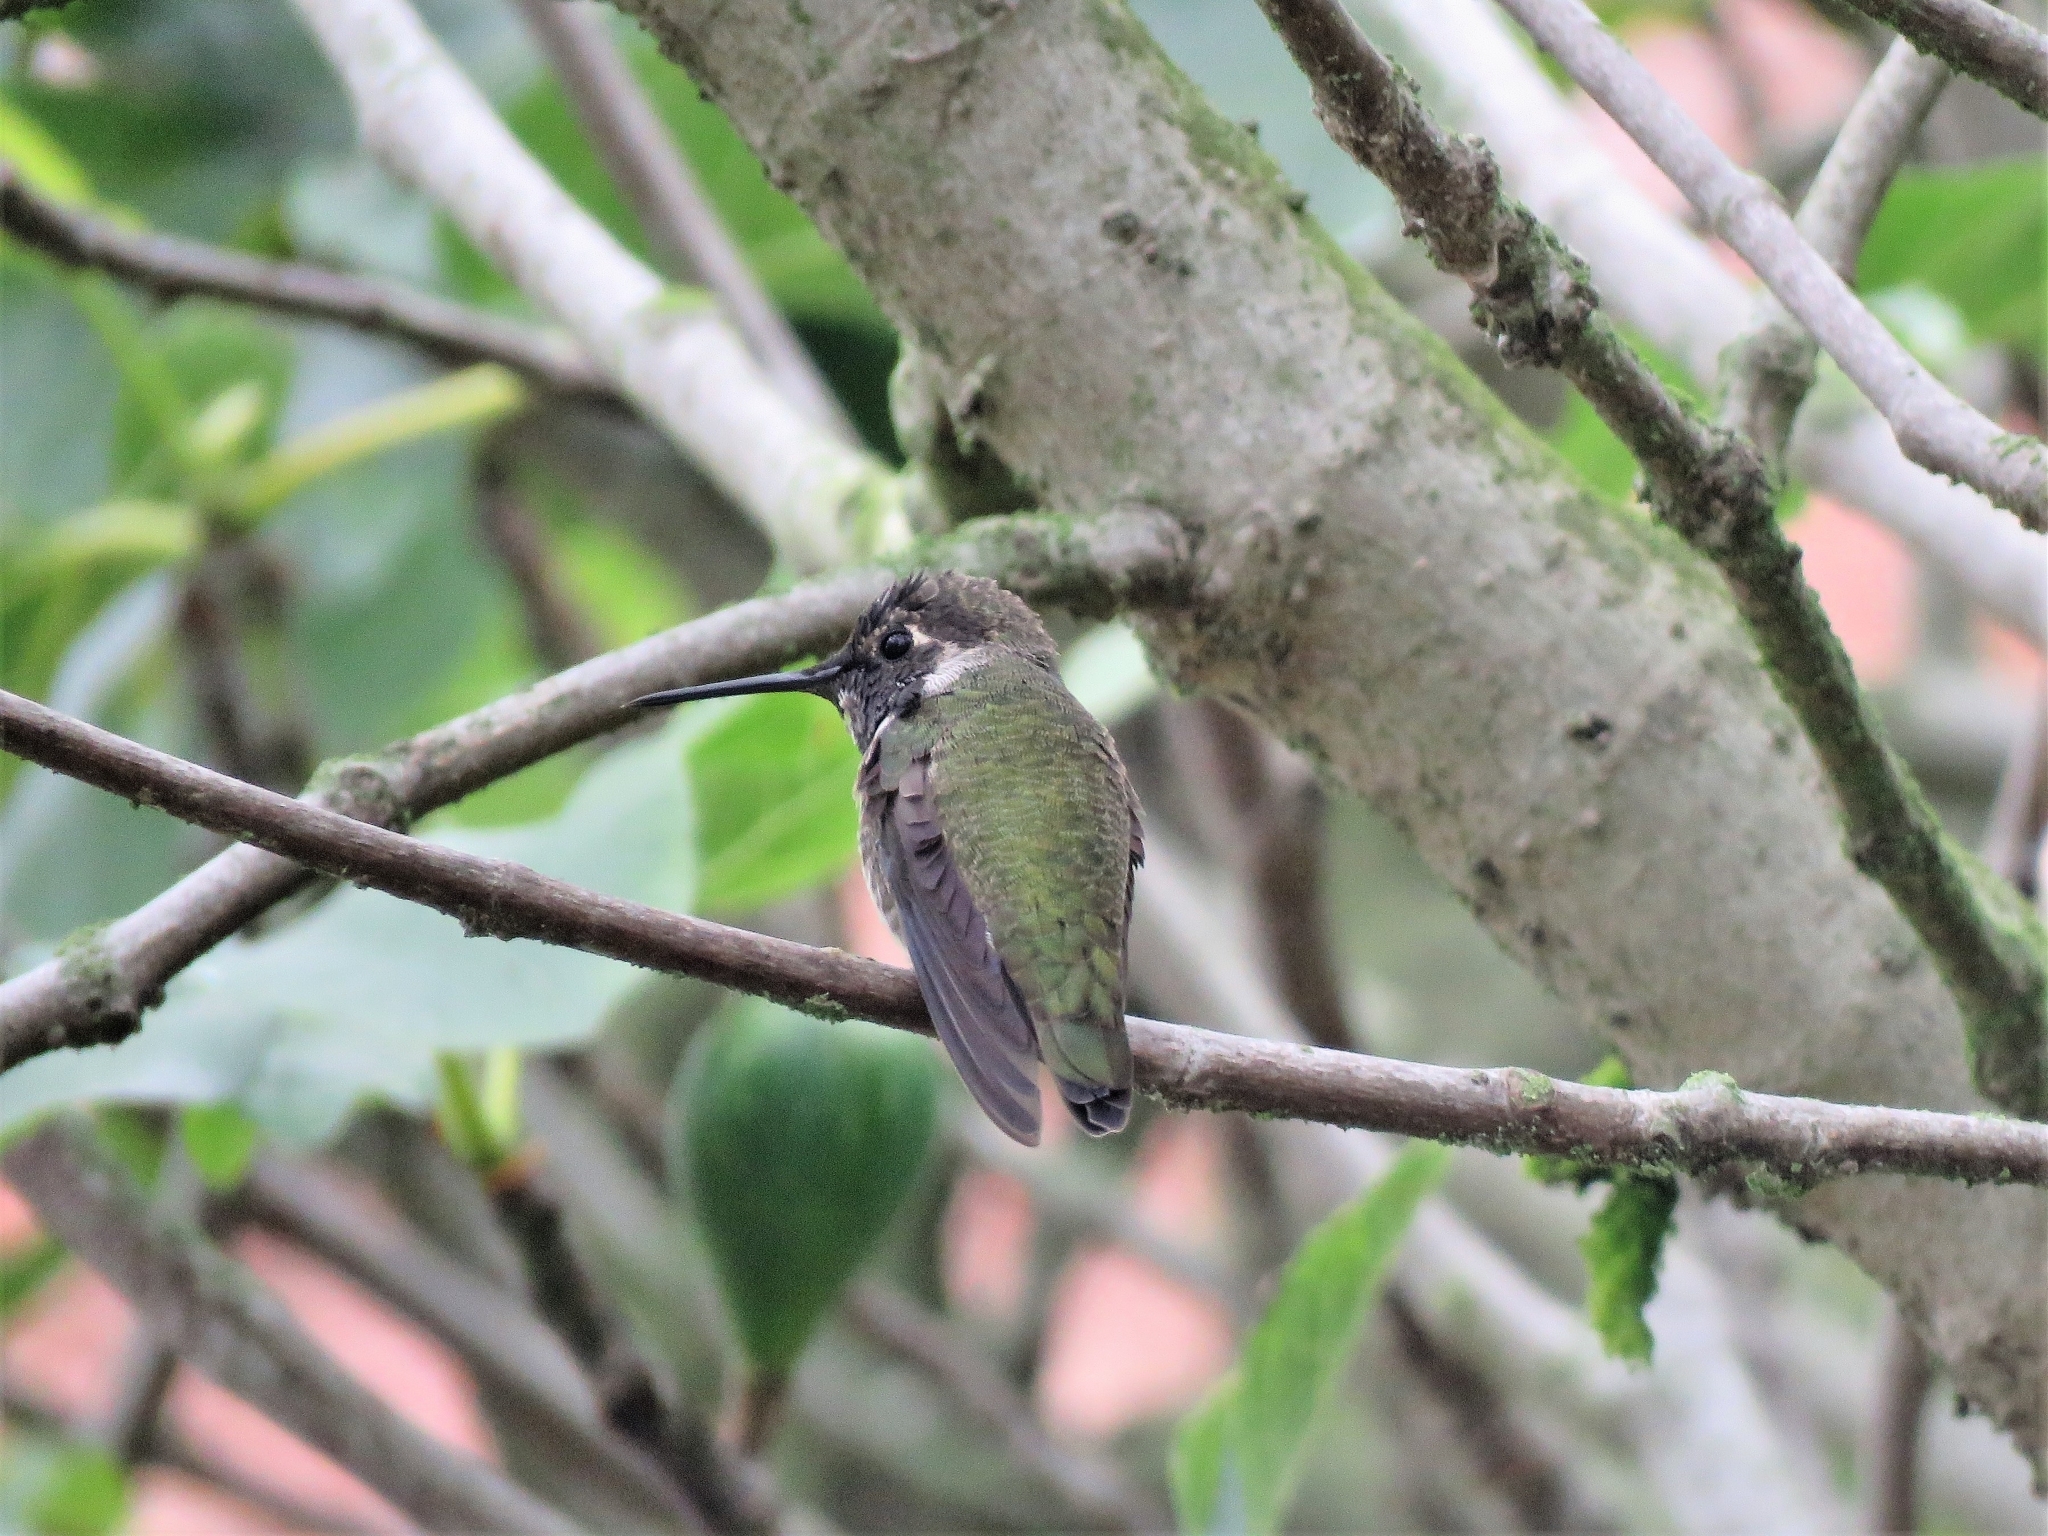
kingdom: Animalia
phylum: Chordata
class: Aves
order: Apodiformes
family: Trochilidae
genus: Calypte
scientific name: Calypte anna
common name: Anna's hummingbird
